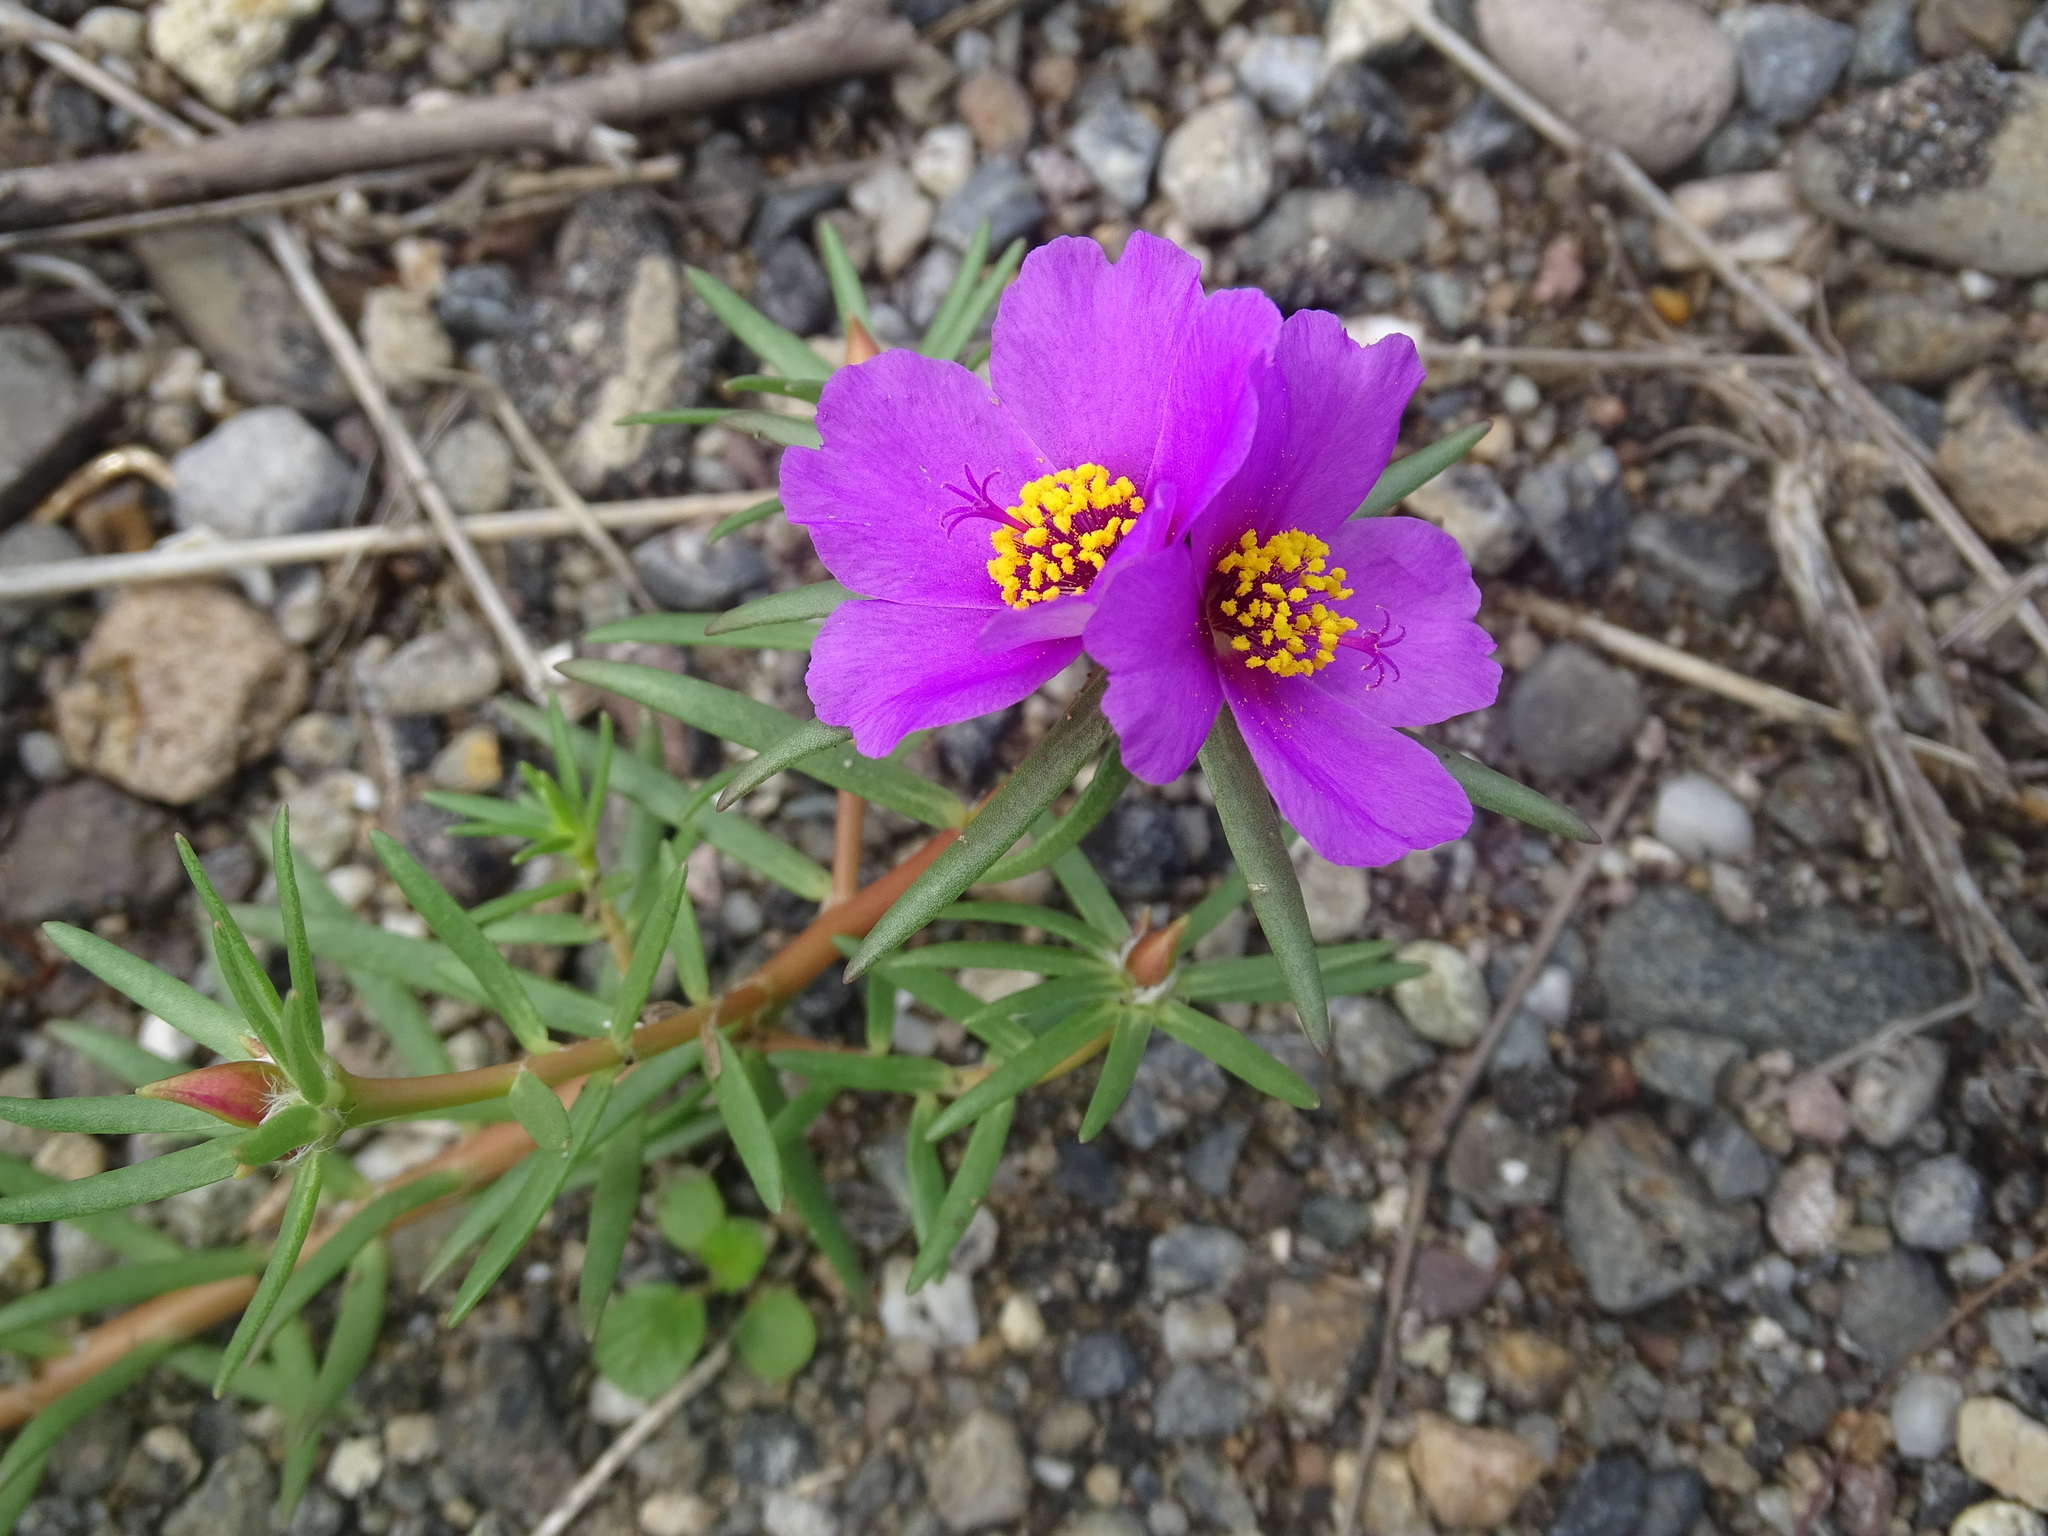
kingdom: Plantae
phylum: Tracheophyta
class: Magnoliopsida
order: Caryophyllales
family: Portulacaceae
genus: Portulaca
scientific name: Portulaca pilosa
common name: Kiss me quick
